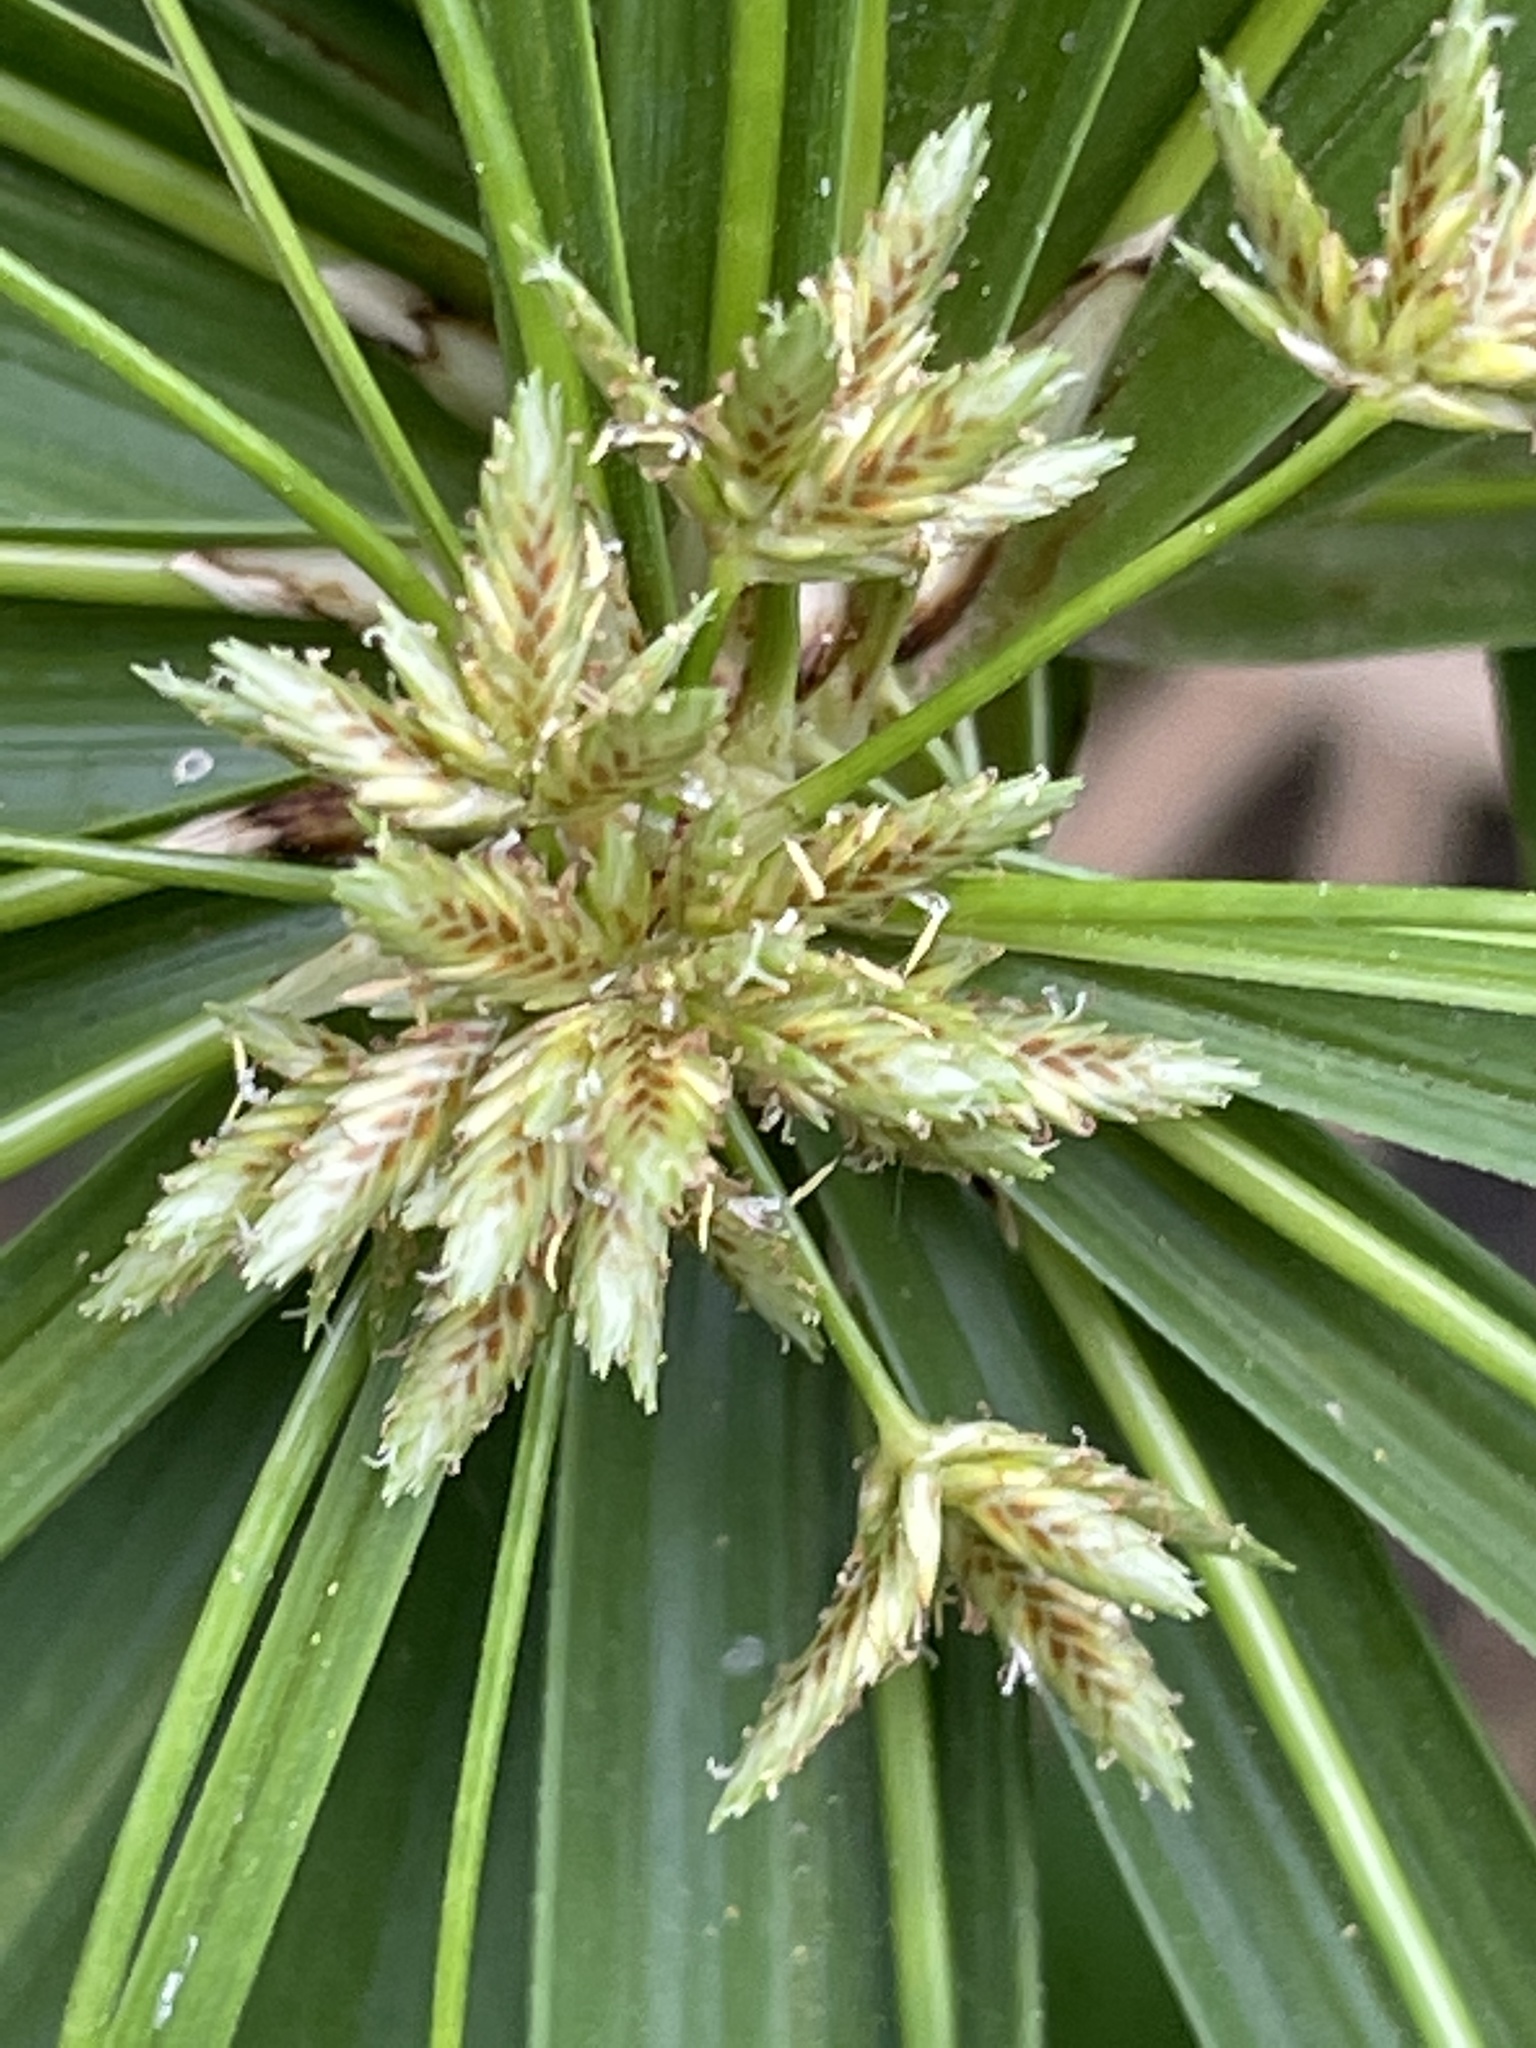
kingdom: Plantae
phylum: Tracheophyta
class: Liliopsida
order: Poales
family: Cyperaceae
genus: Cyperus
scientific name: Cyperus alternifolius
